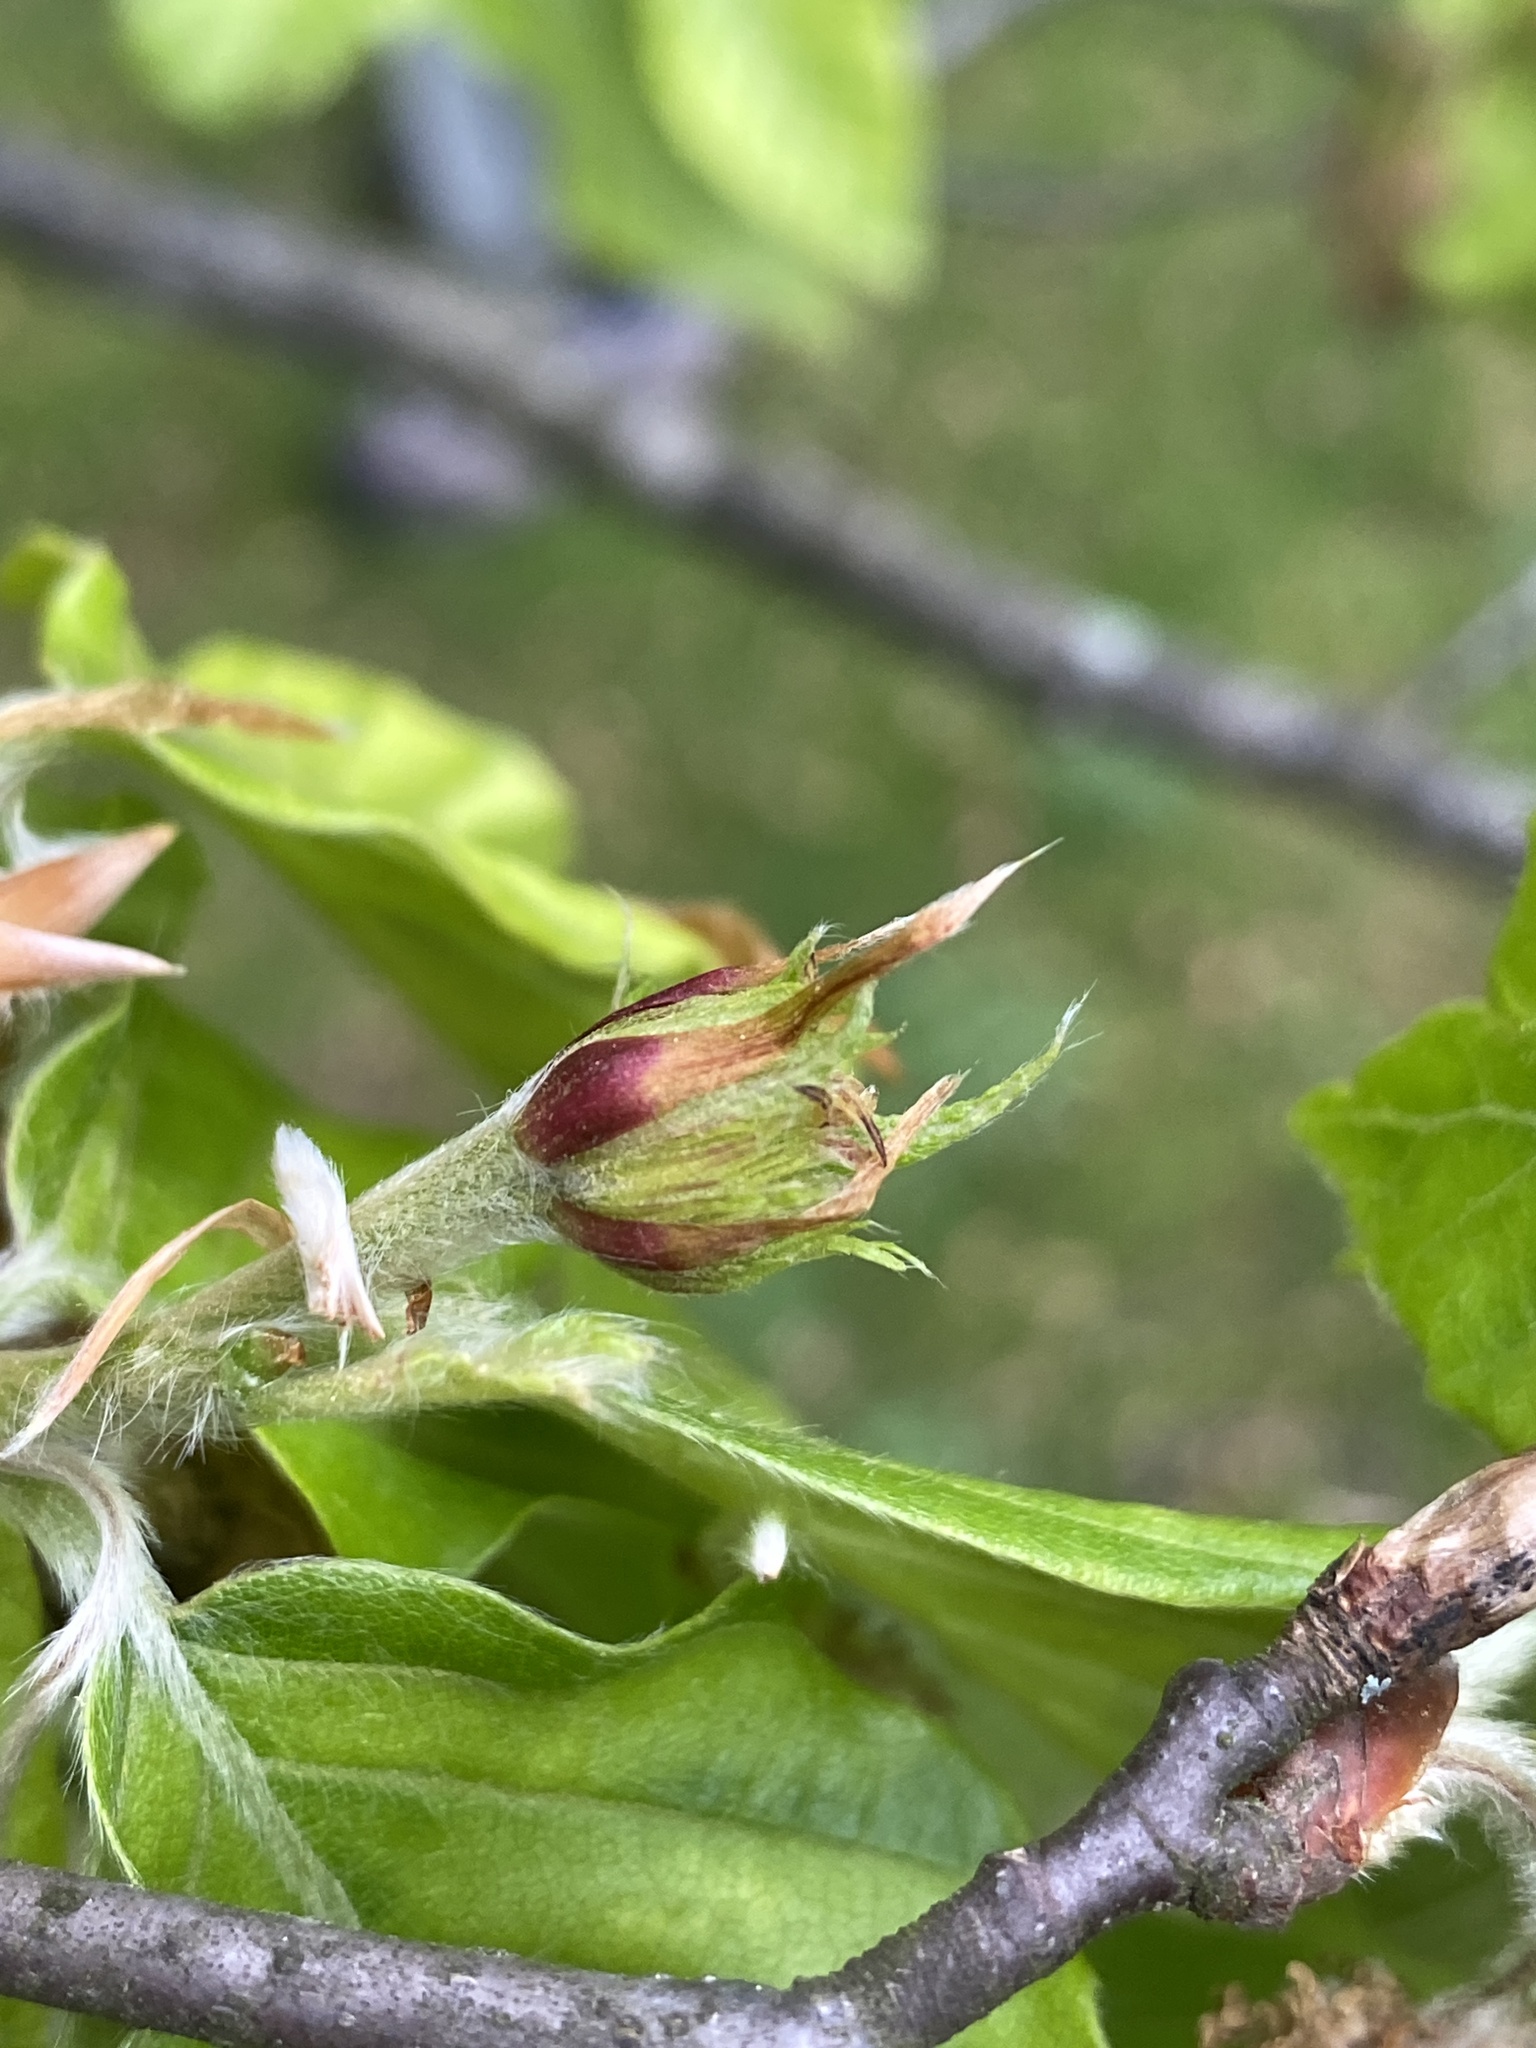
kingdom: Plantae
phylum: Tracheophyta
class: Magnoliopsida
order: Fagales
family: Fagaceae
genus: Fagus
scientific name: Fagus grandifolia
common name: American beech
